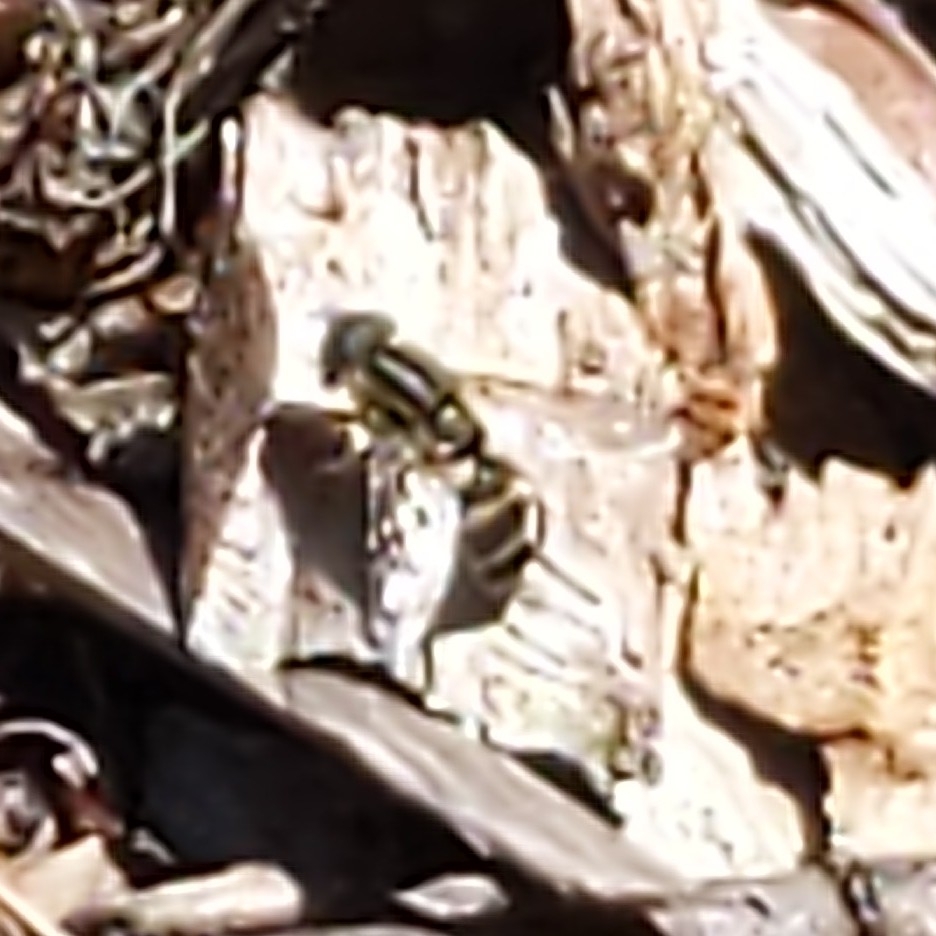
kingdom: Animalia
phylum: Arthropoda
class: Insecta
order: Diptera
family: Syrphidae
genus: Helophilus
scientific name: Helophilus fasciatus
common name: Narrow-headed marsh fly
